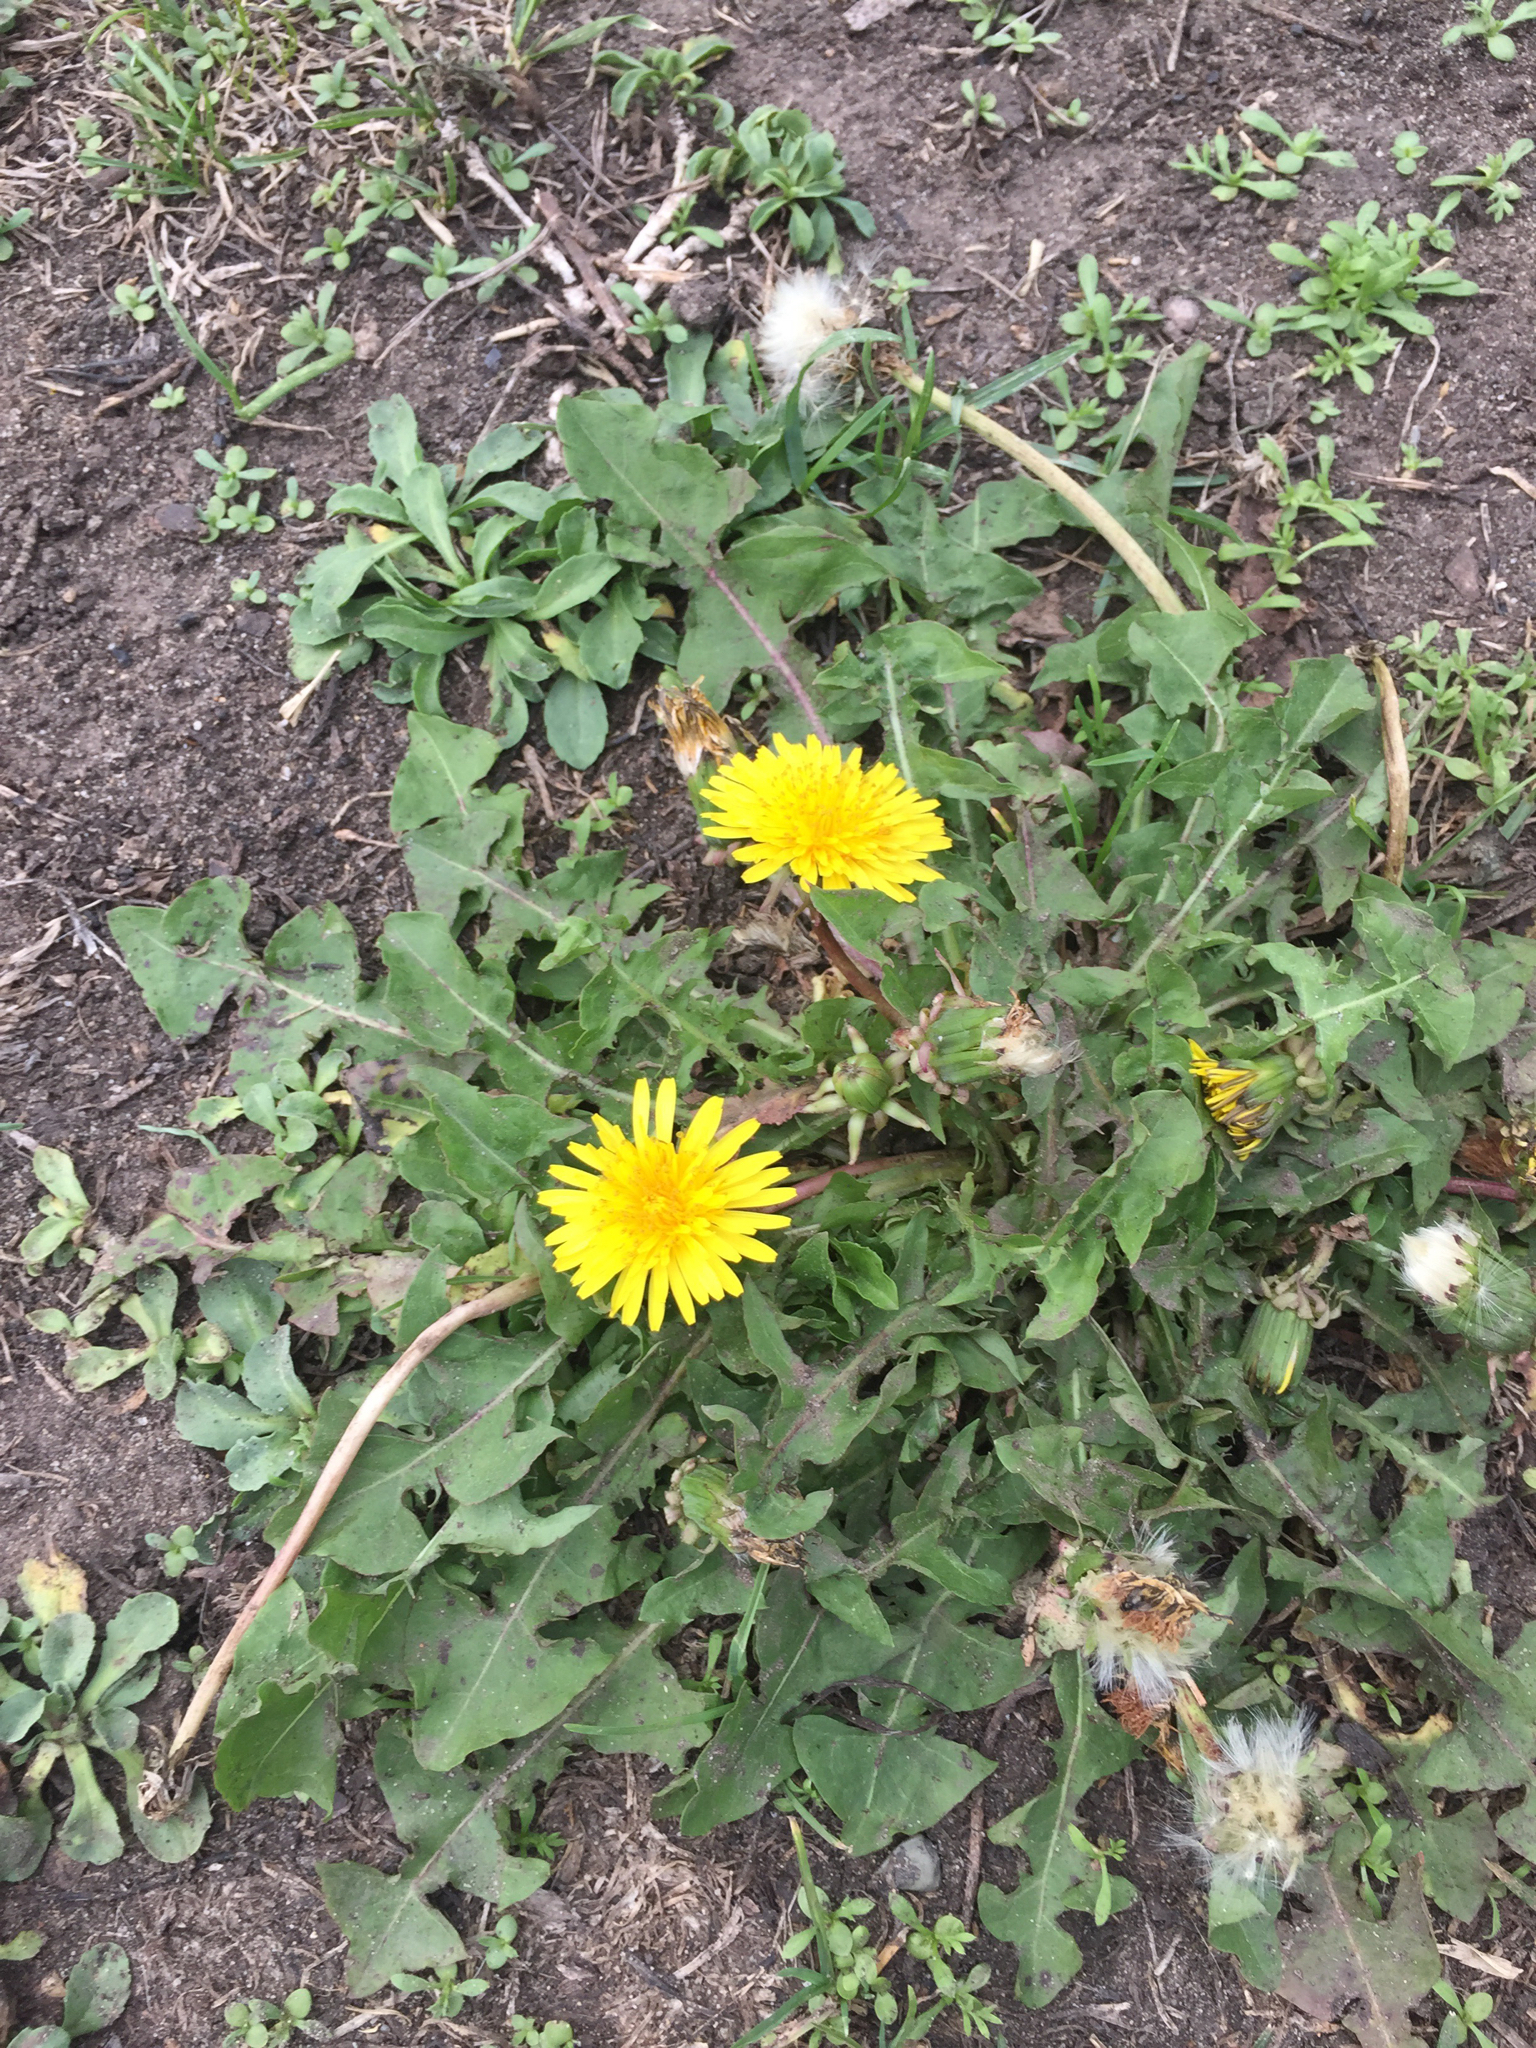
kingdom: Plantae
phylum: Tracheophyta
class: Magnoliopsida
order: Asterales
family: Asteraceae
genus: Taraxacum
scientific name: Taraxacum officinale
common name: Common dandelion
